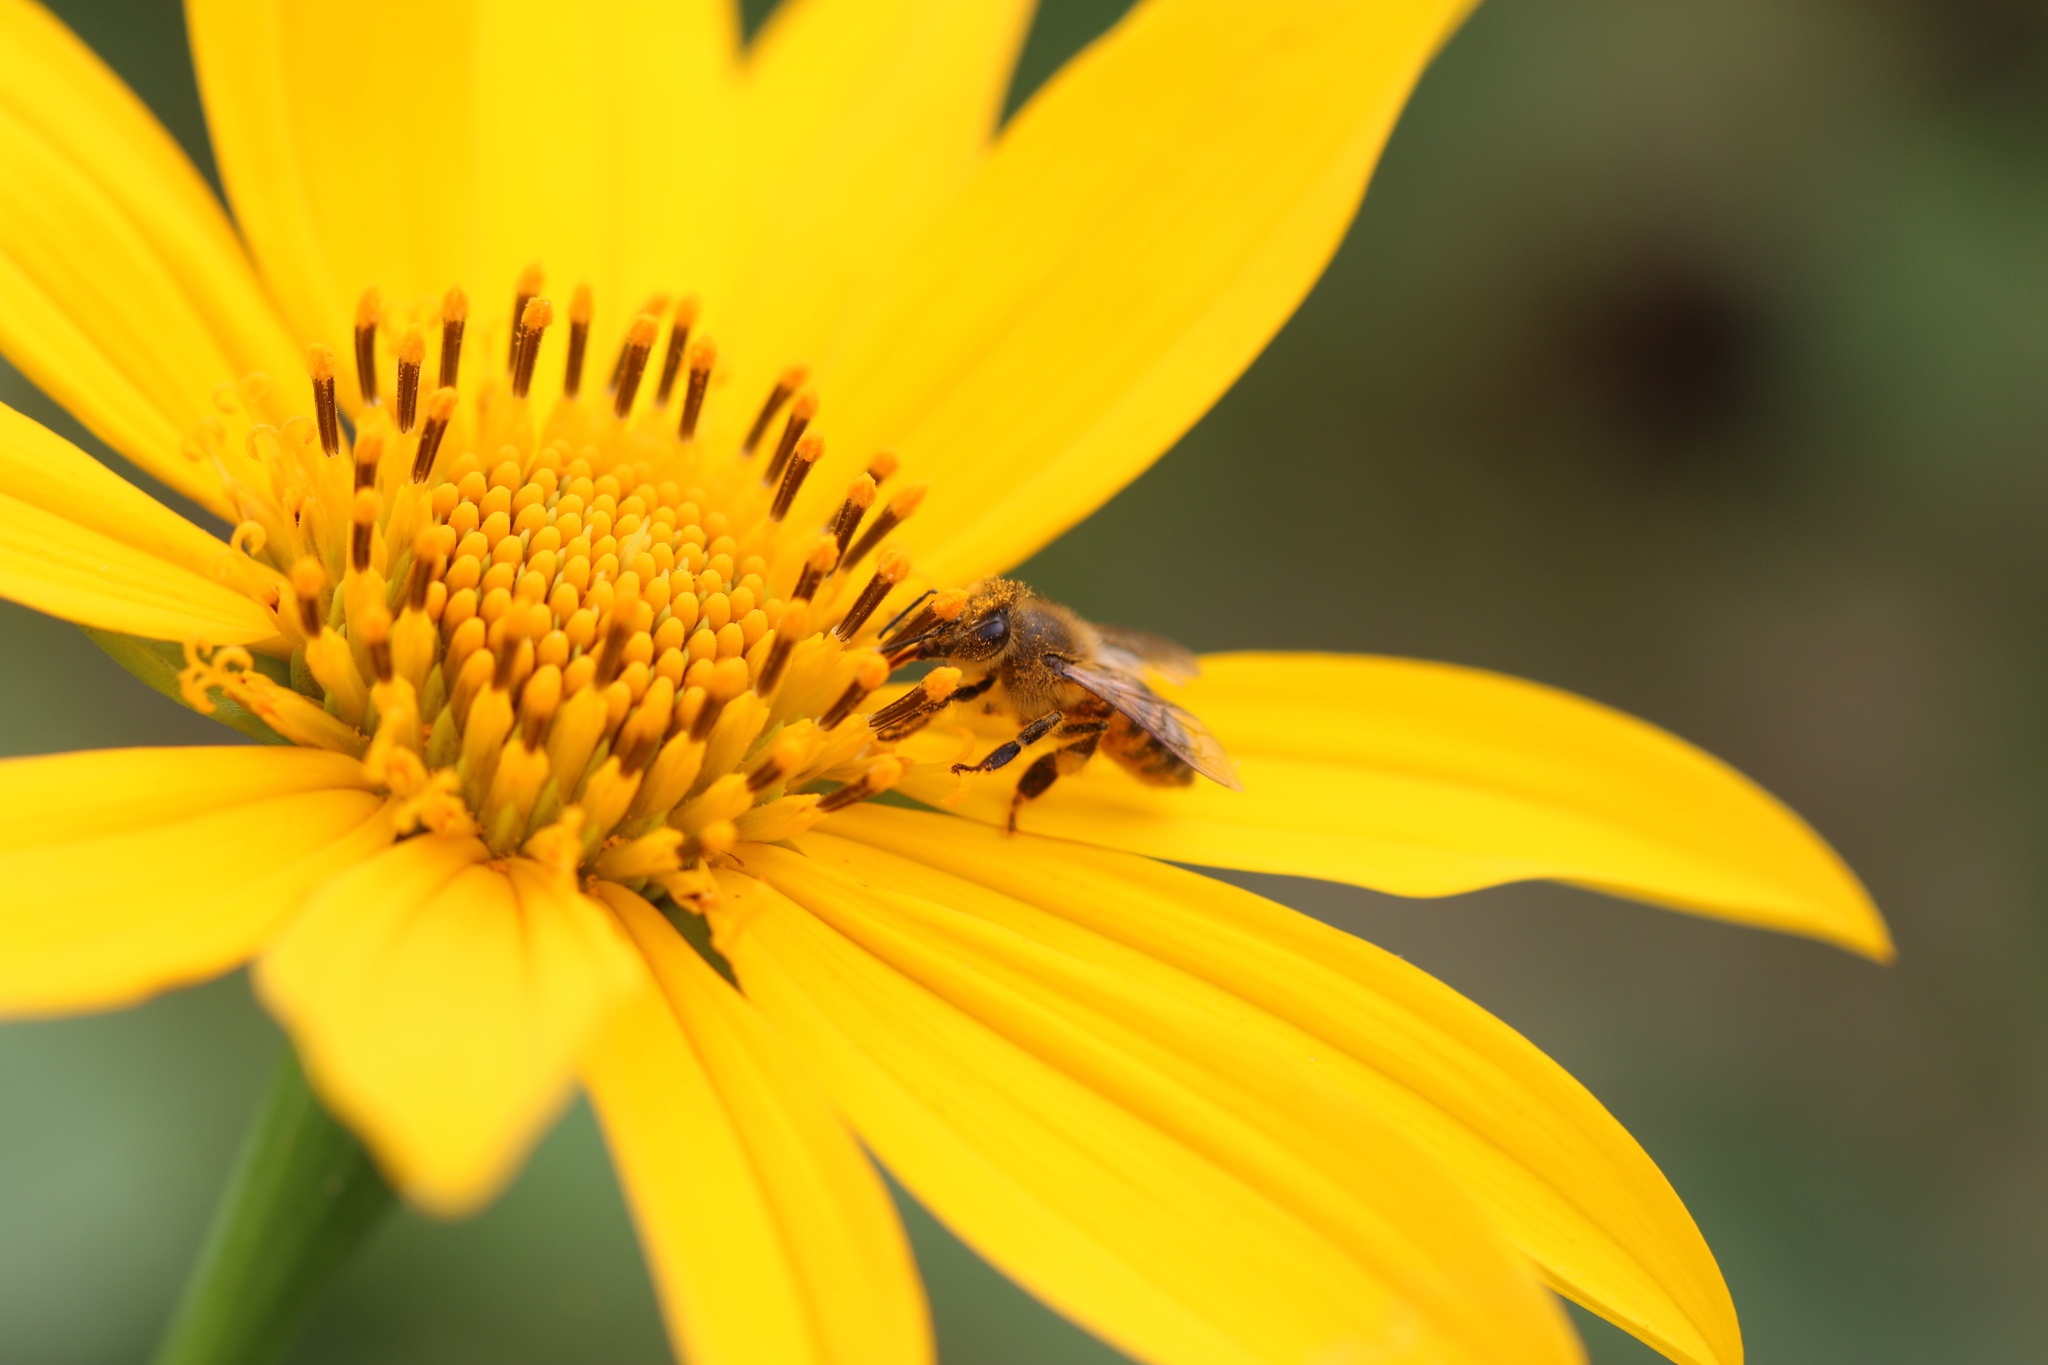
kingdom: Animalia
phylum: Arthropoda
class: Insecta
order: Hymenoptera
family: Apidae
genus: Apis
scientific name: Apis mellifera
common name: Honey bee
